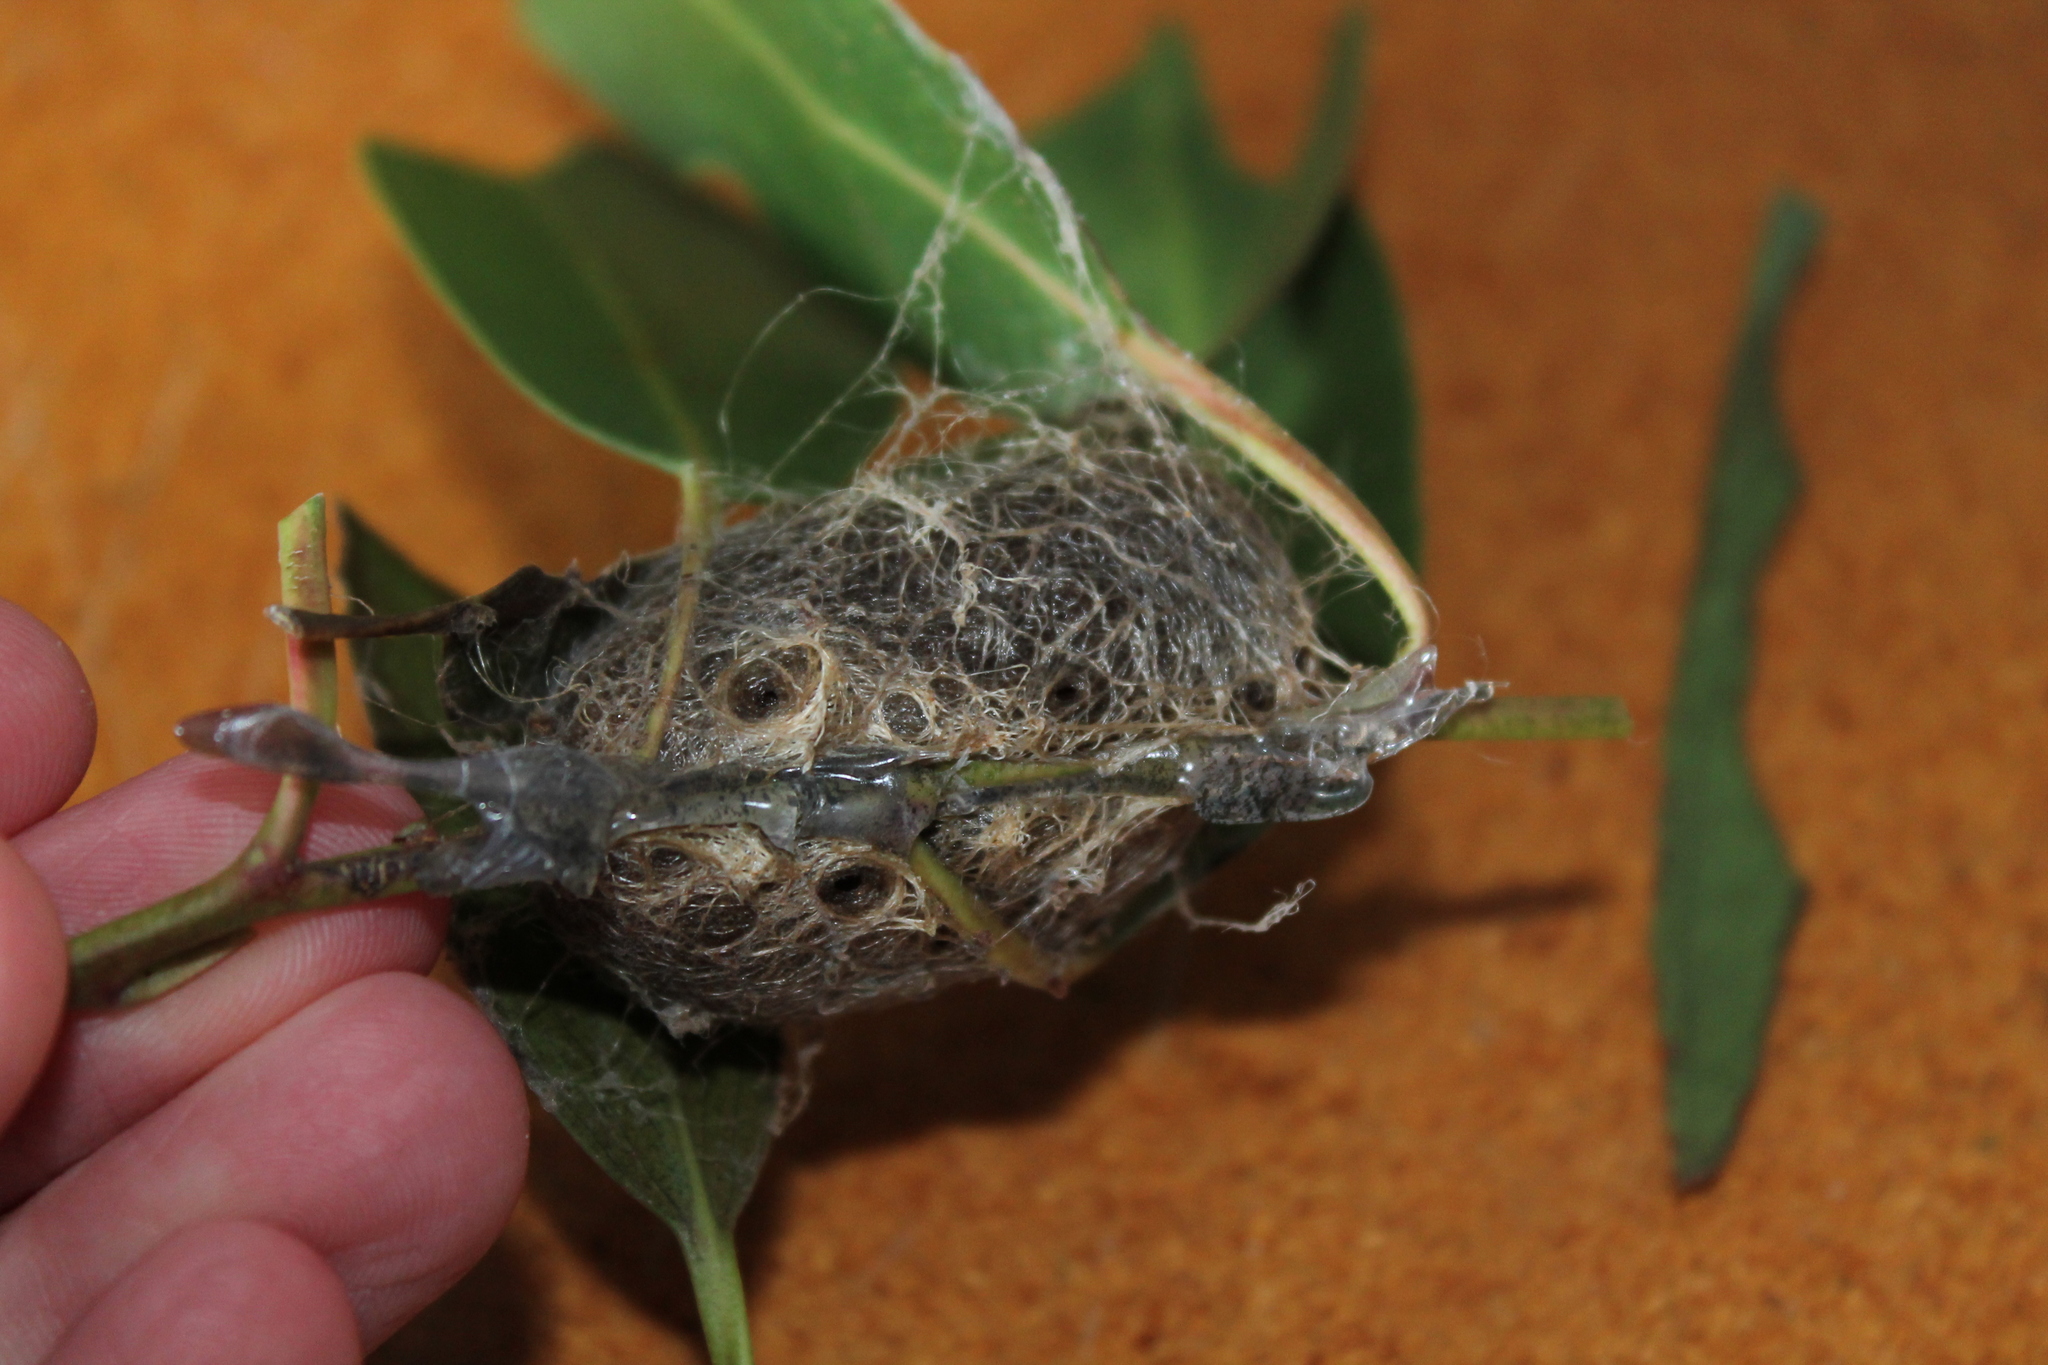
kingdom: Animalia
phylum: Arthropoda
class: Insecta
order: Lepidoptera
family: Saturniidae
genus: Opodiphthera
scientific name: Opodiphthera
